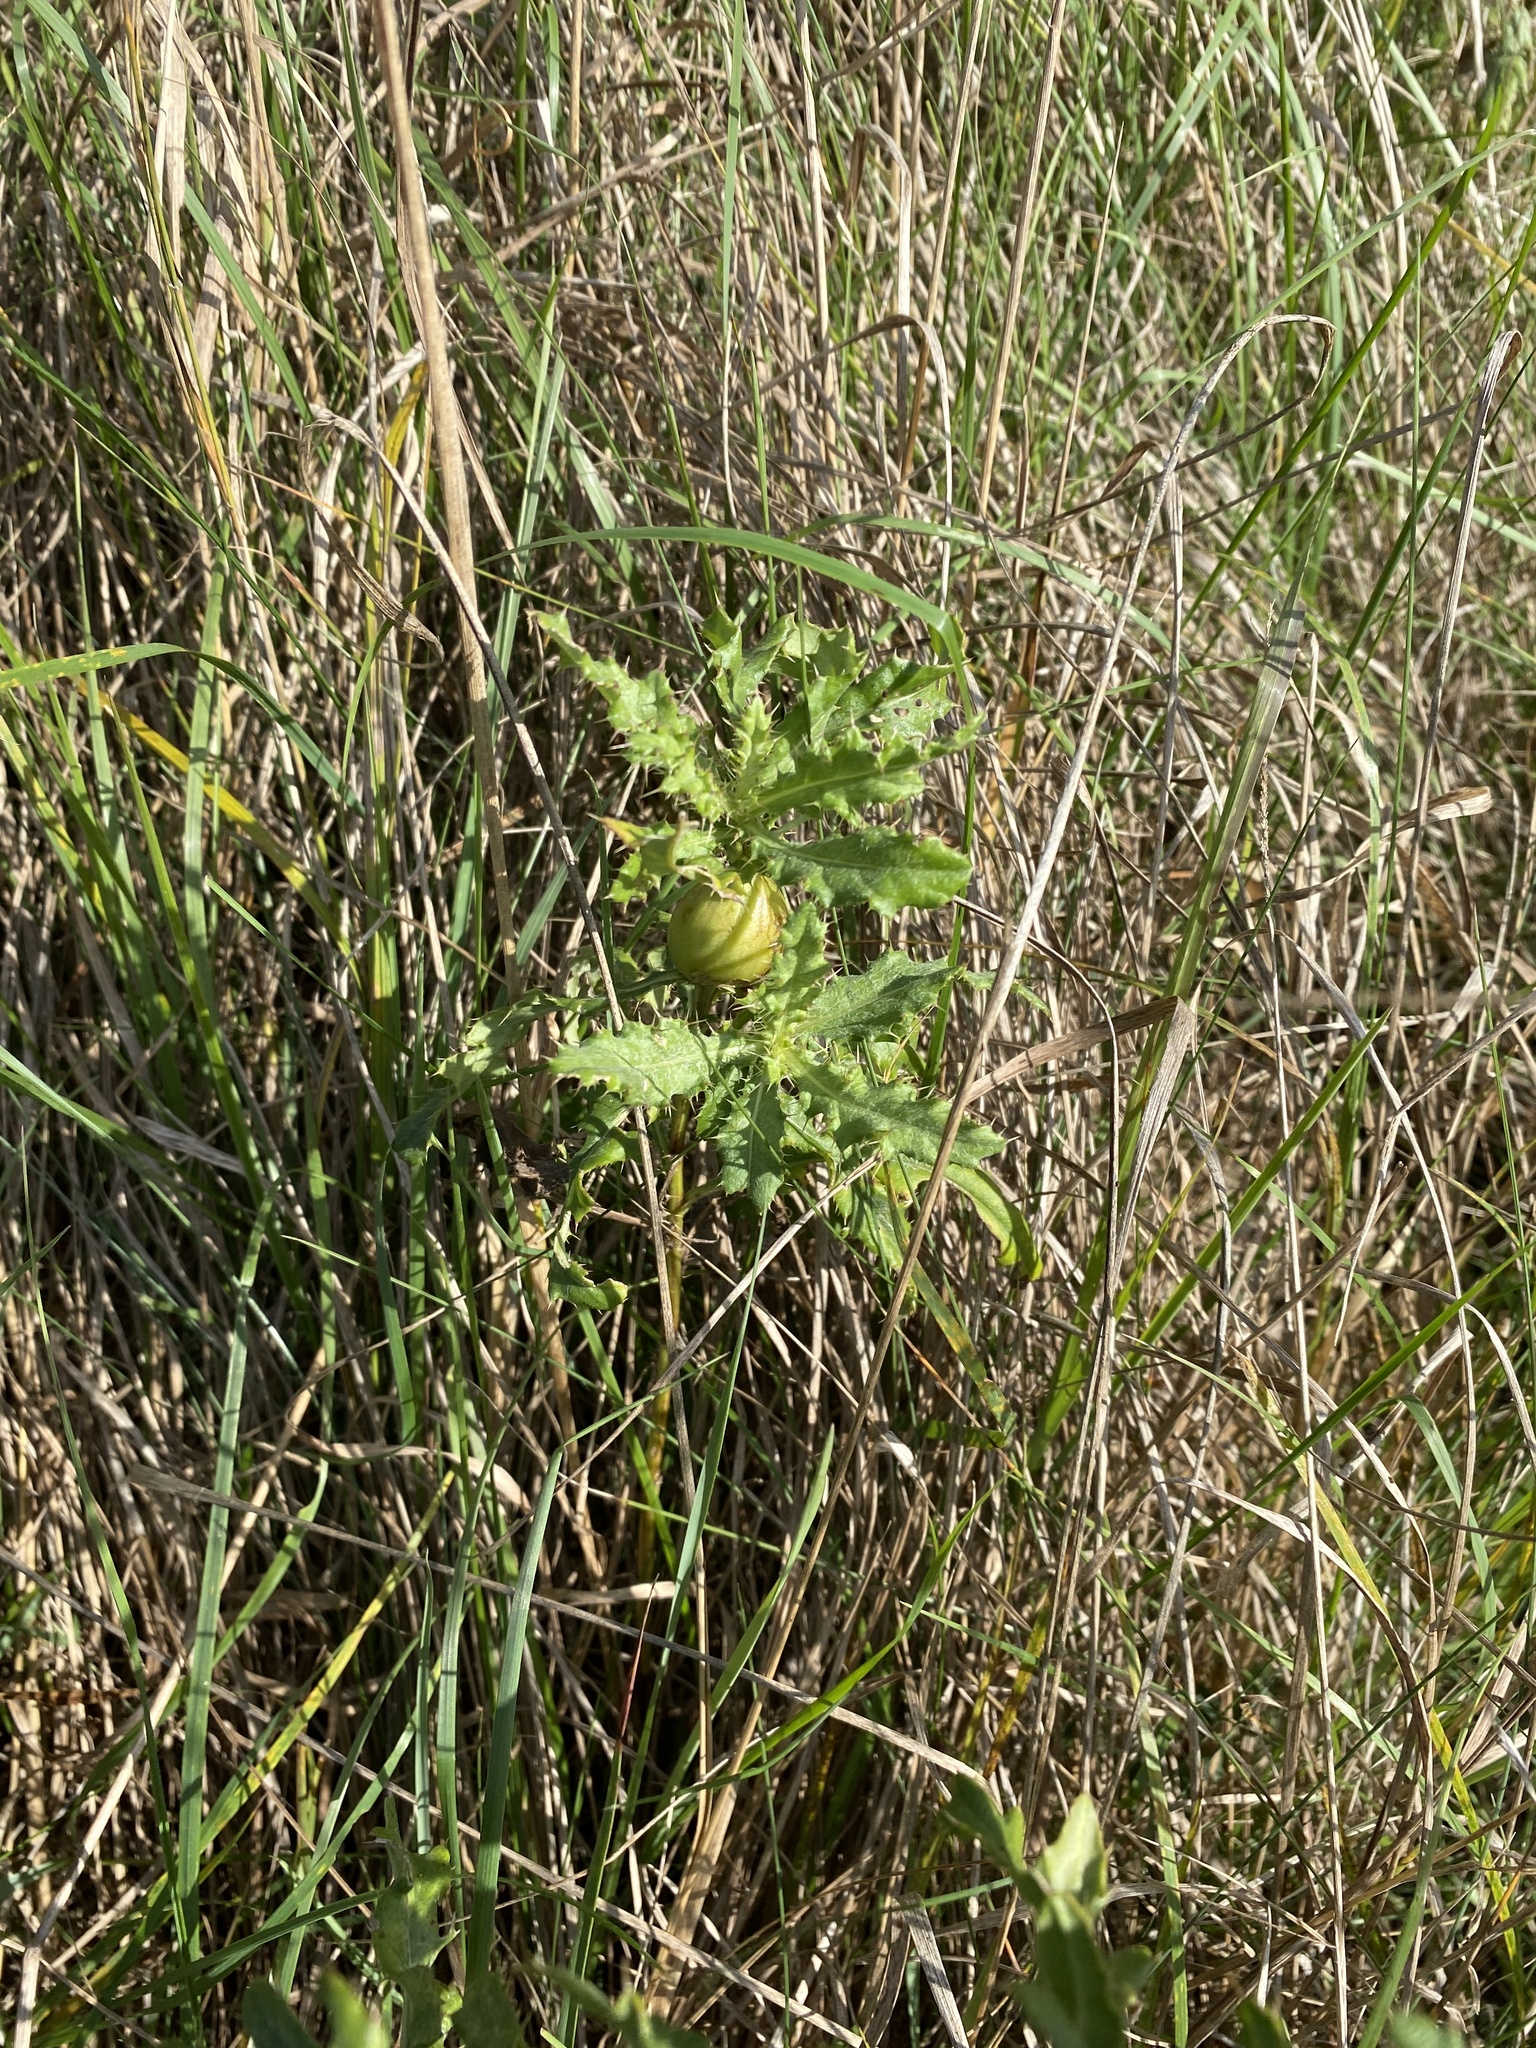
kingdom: Animalia
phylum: Arthropoda
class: Insecta
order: Diptera
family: Tephritidae
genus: Urophora
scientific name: Urophora cardui
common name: Fruit fly
